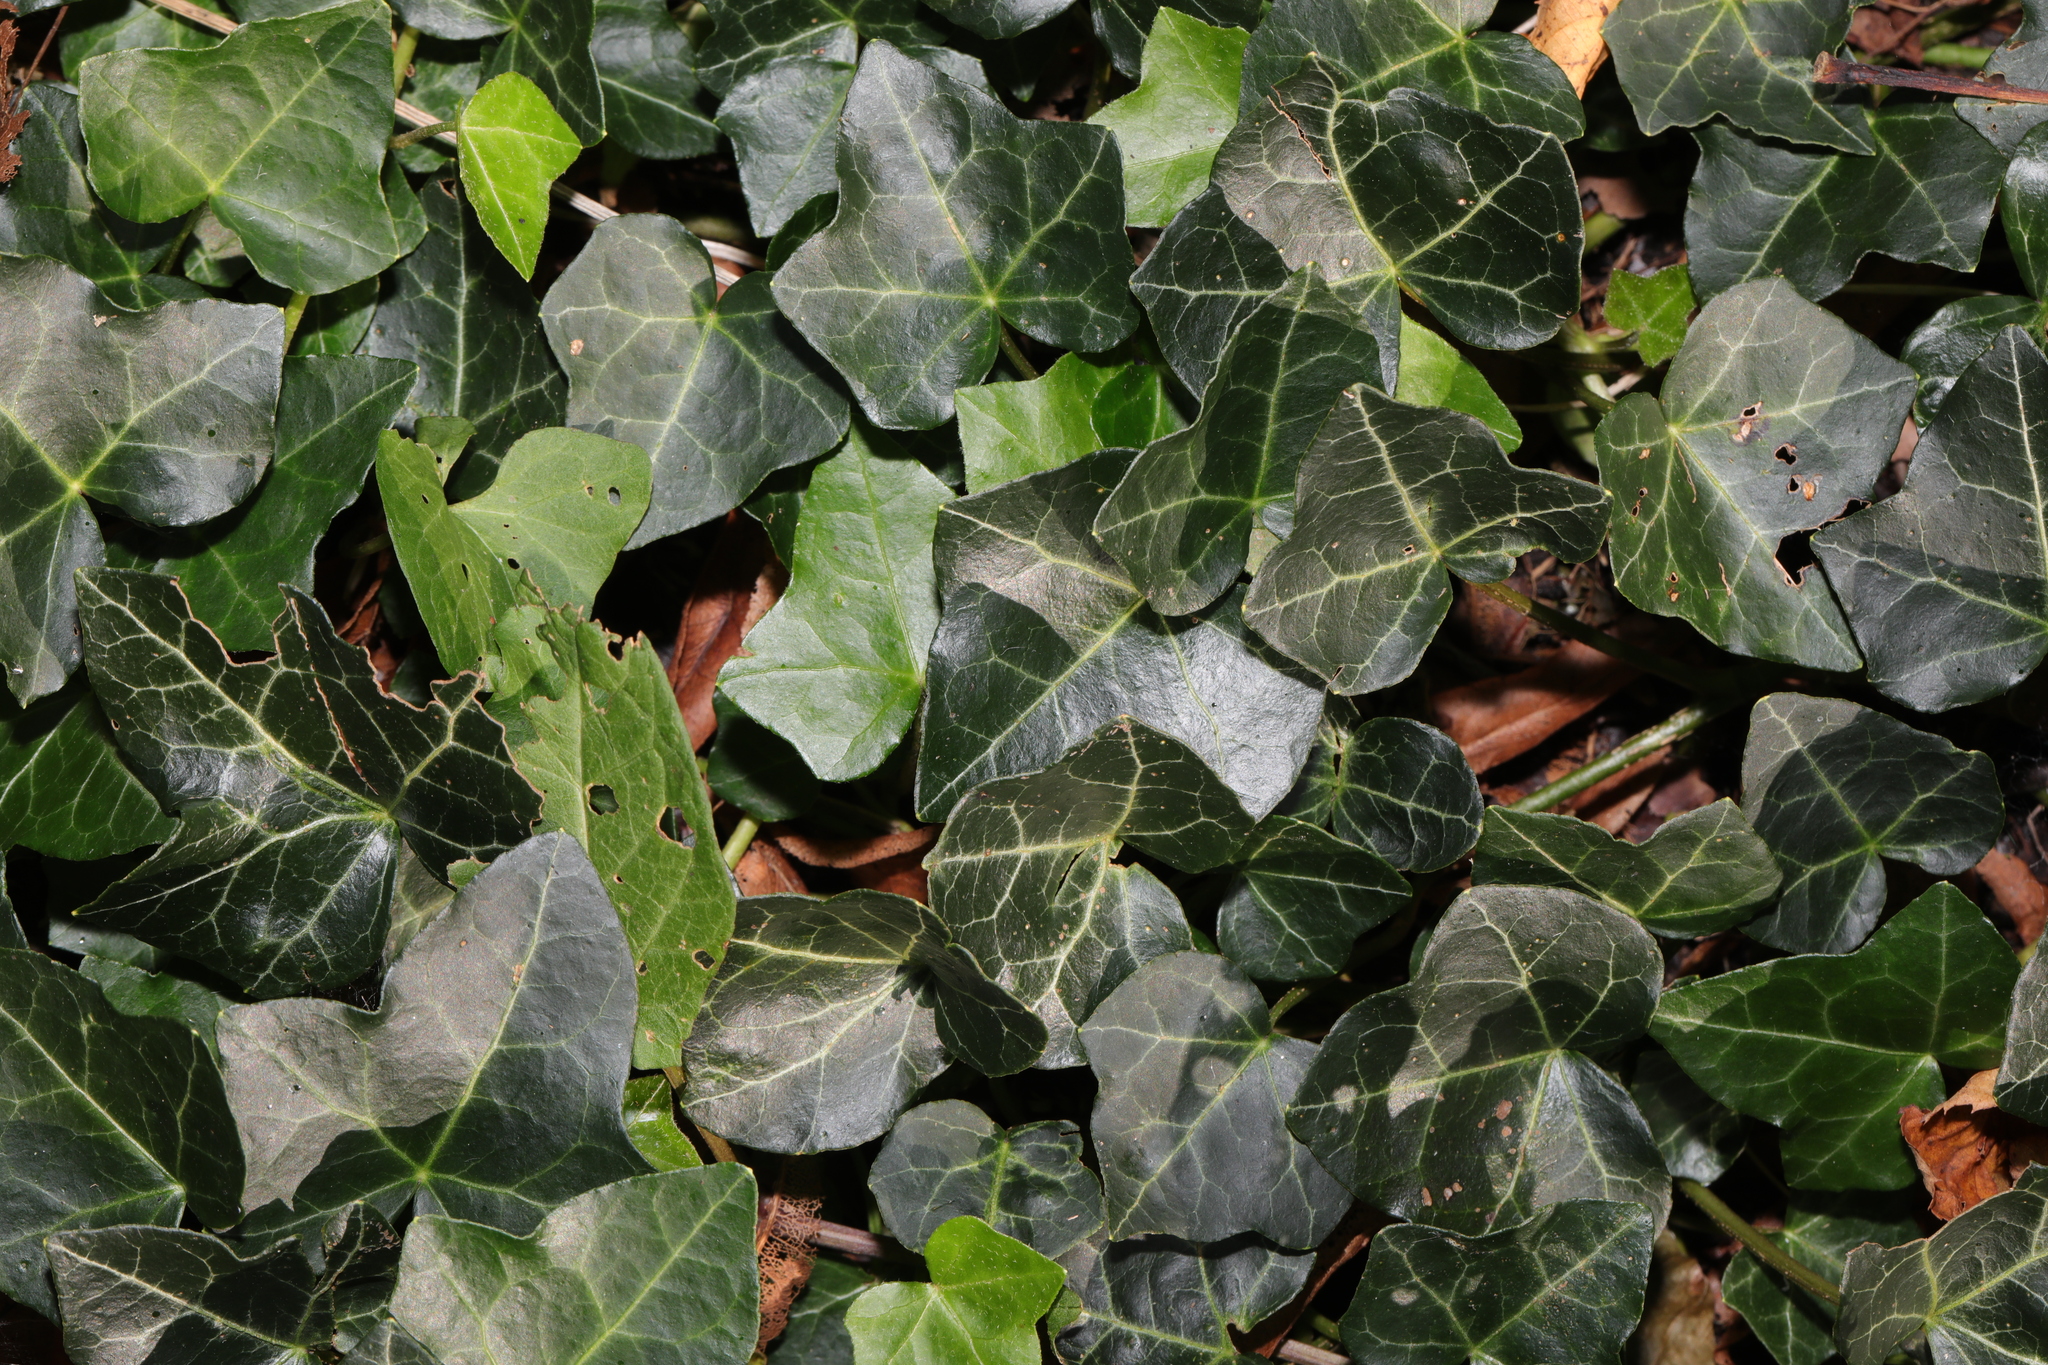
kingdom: Plantae
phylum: Tracheophyta
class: Magnoliopsida
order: Apiales
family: Araliaceae
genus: Hedera
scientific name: Hedera helix
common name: Ivy
